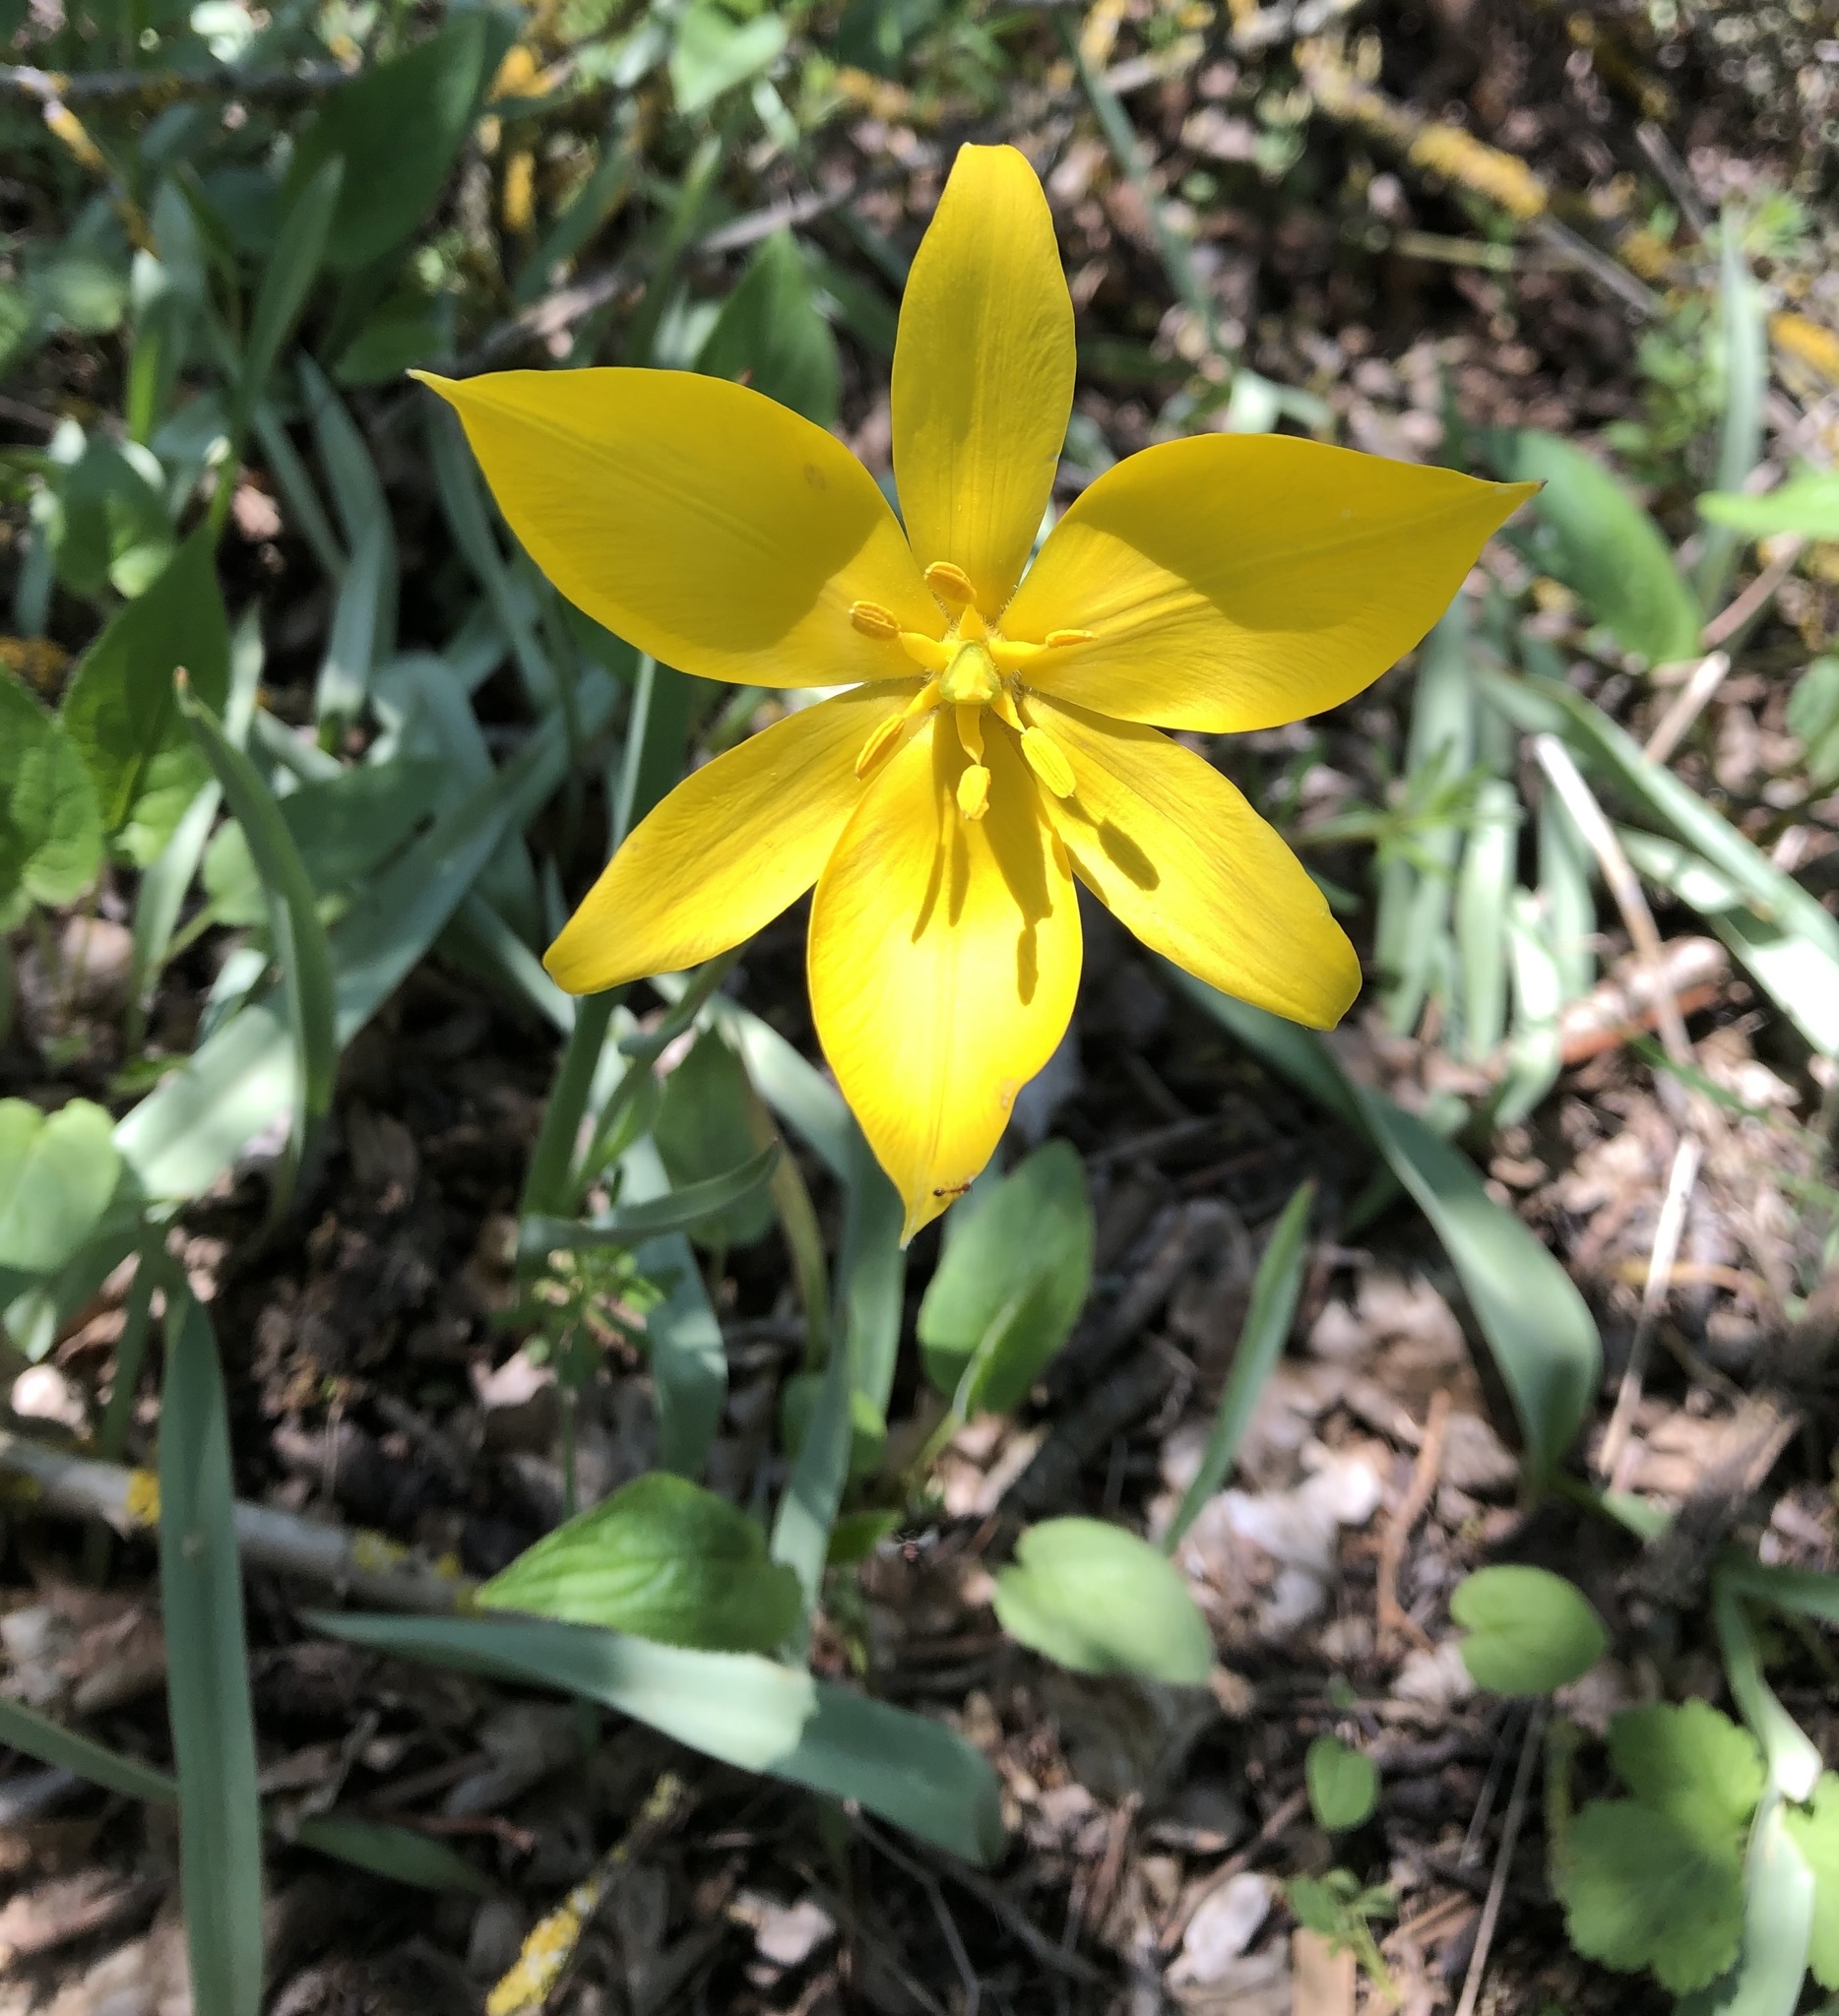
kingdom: Plantae
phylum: Tracheophyta
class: Liliopsida
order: Liliales
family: Liliaceae
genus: Tulipa
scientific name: Tulipa sylvestris
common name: Wild tulip
